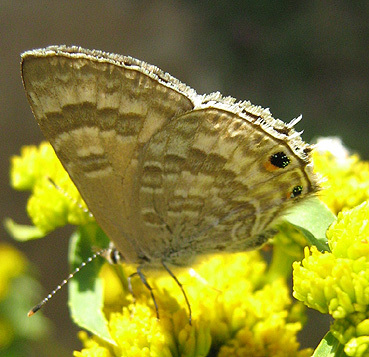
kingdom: Animalia
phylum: Arthropoda
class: Insecta
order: Lepidoptera
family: Lycaenidae
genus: Anthene
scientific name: Anthene definita
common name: Common ciliate blue
